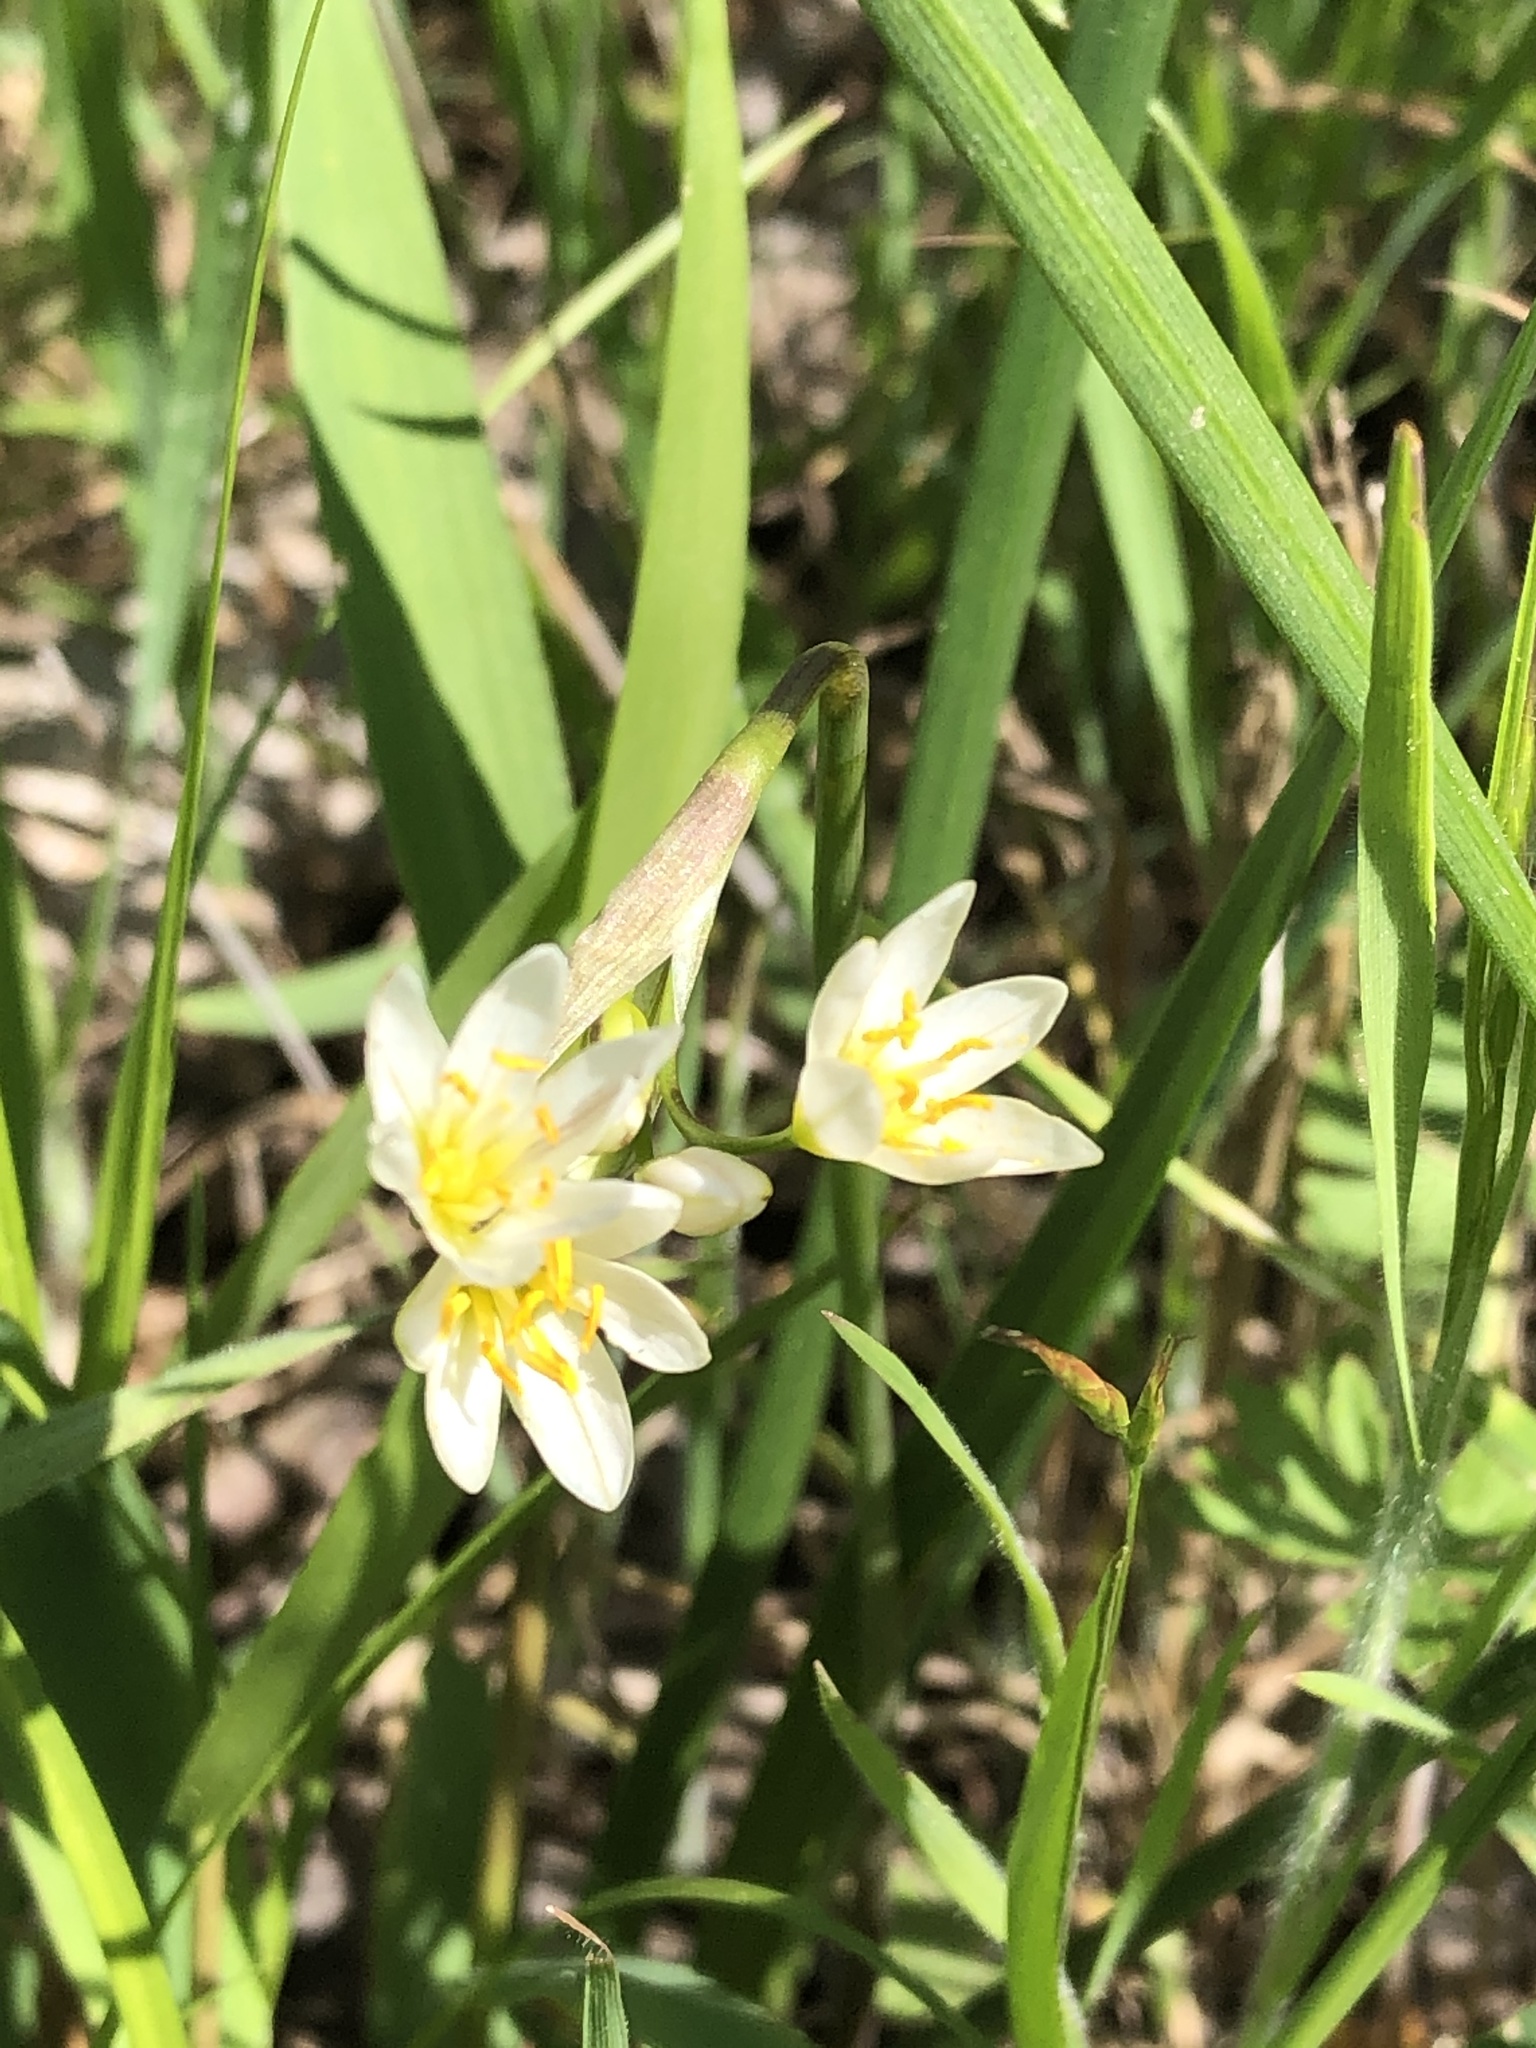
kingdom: Plantae
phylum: Tracheophyta
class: Liliopsida
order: Asparagales
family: Amaryllidaceae
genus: Nothoscordum
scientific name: Nothoscordum bivalve
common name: Crow-poison
